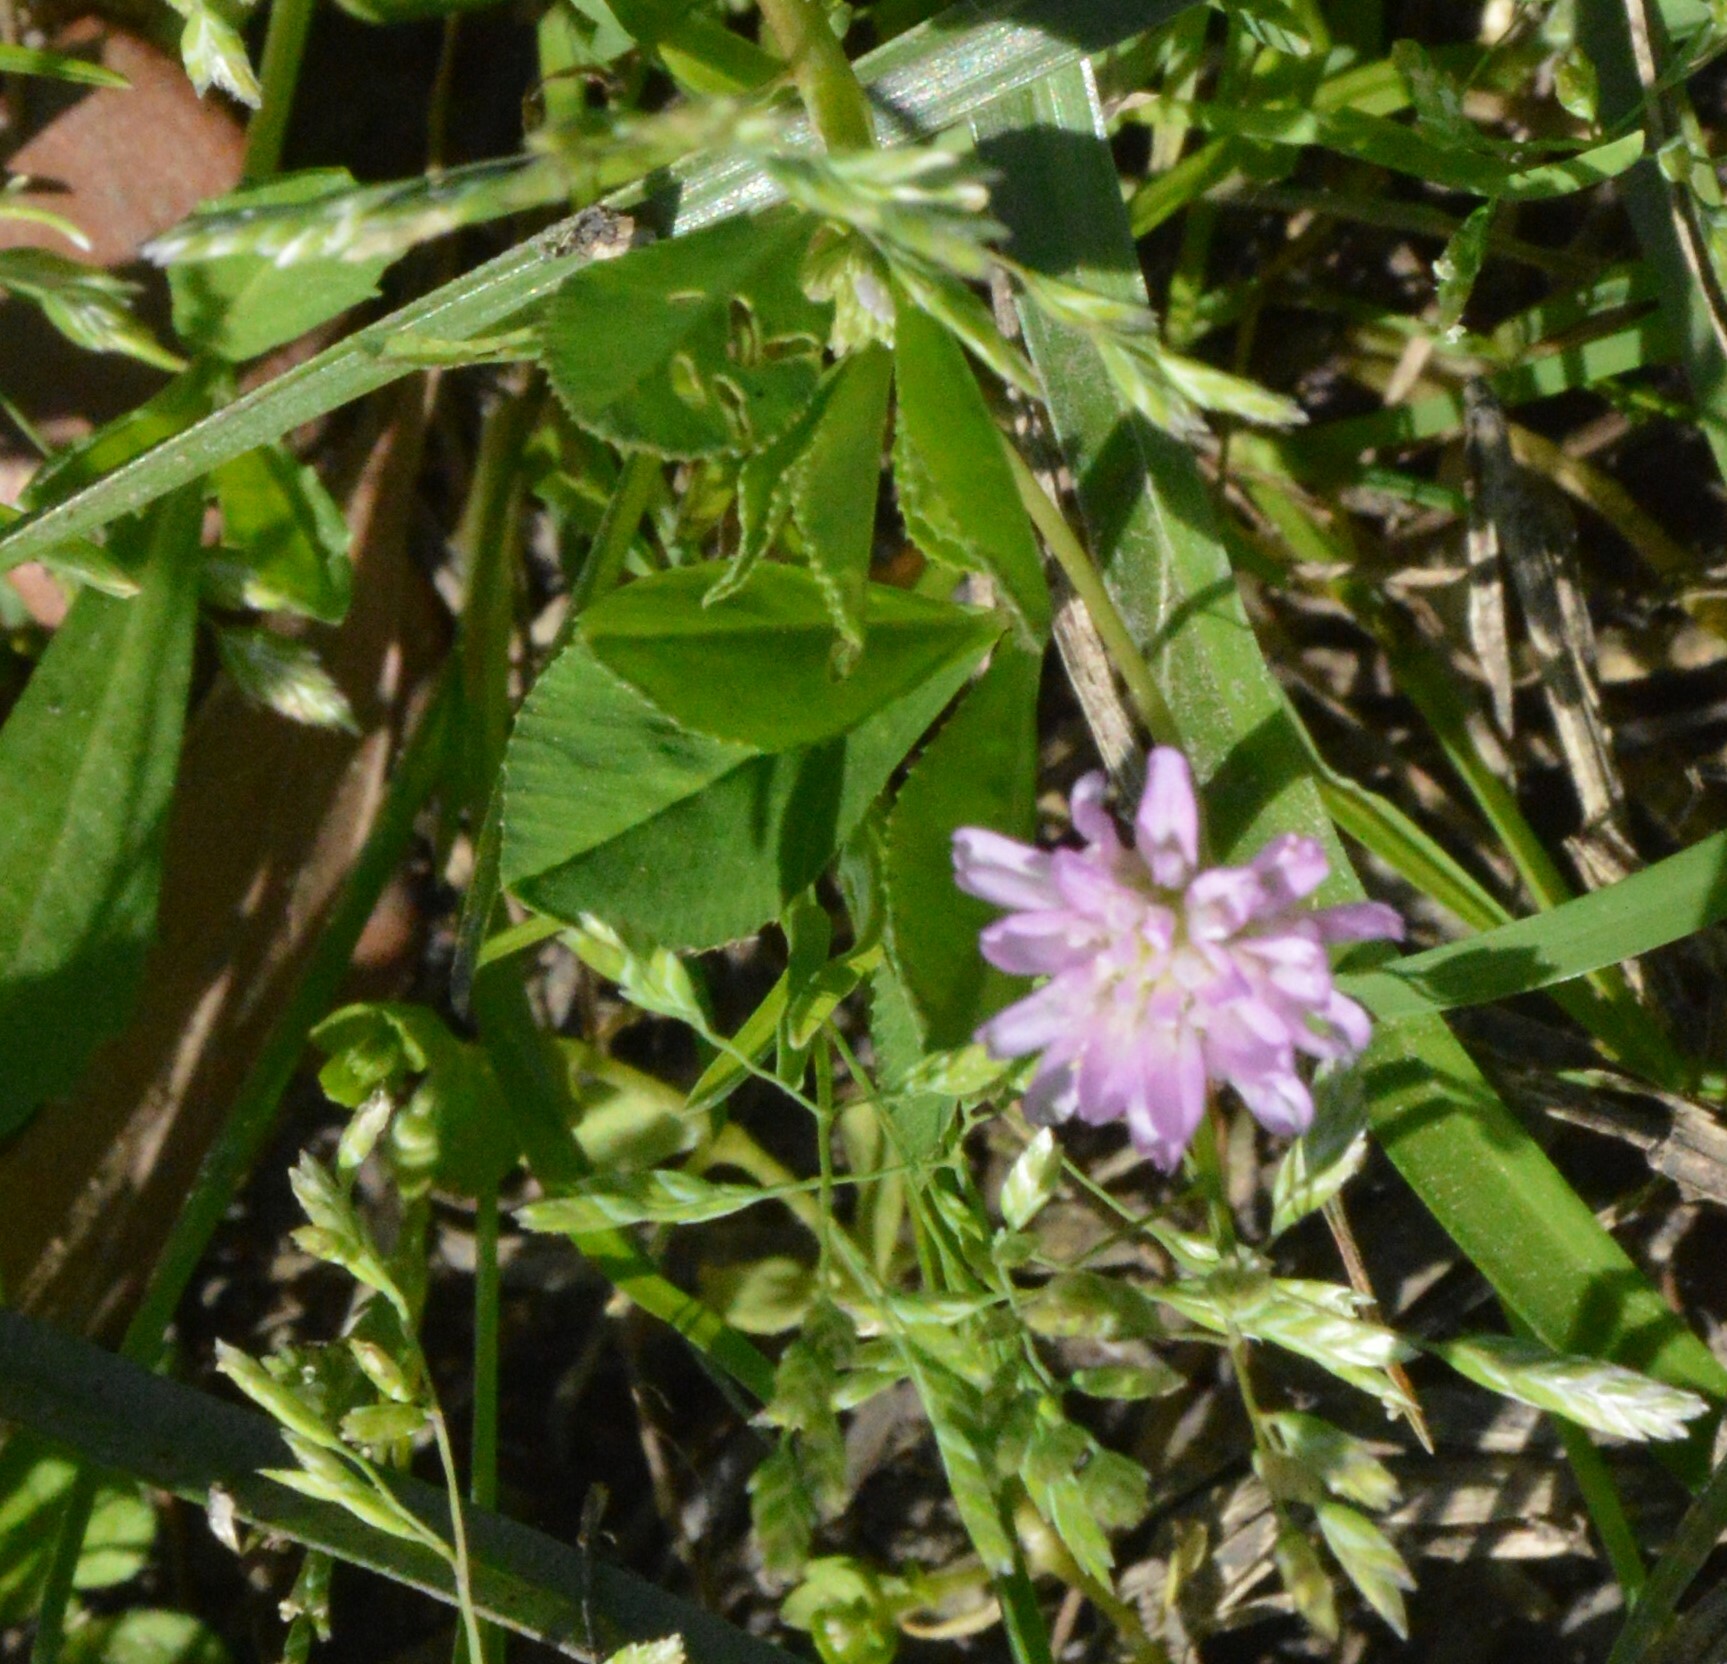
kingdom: Plantae
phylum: Tracheophyta
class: Magnoliopsida
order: Fabales
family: Fabaceae
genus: Trifolium
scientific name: Trifolium resupinatum
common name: Reversed clover
